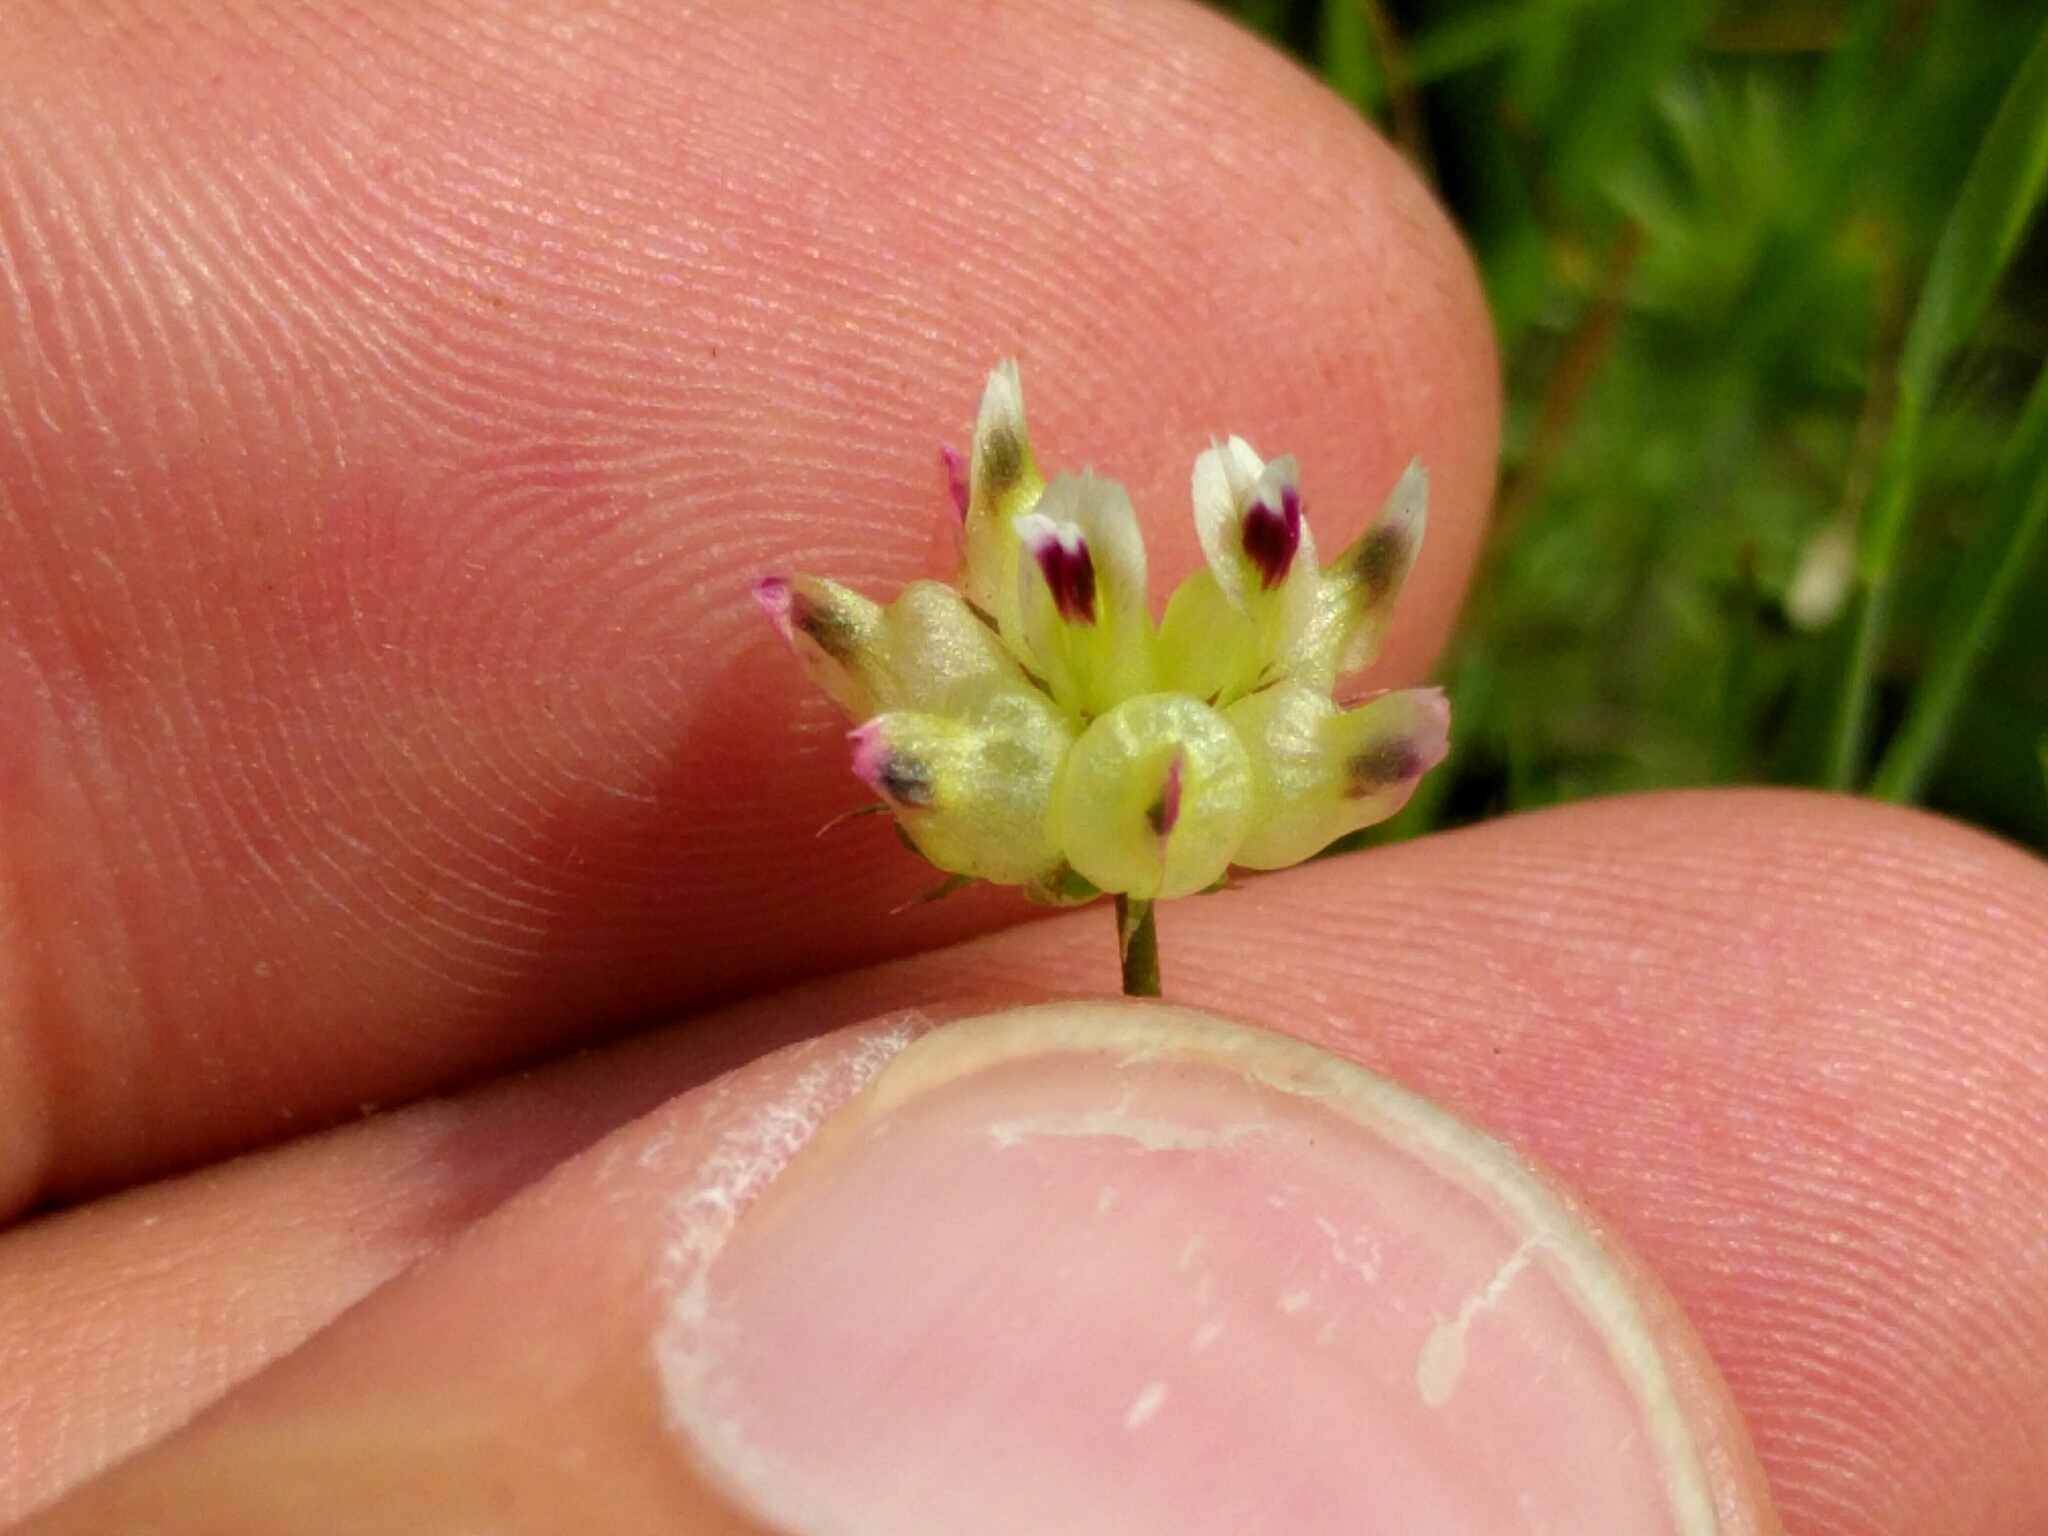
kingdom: Plantae
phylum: Tracheophyta
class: Magnoliopsida
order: Fabales
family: Fabaceae
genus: Trifolium
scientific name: Trifolium depauperatum
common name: Poverty clover
